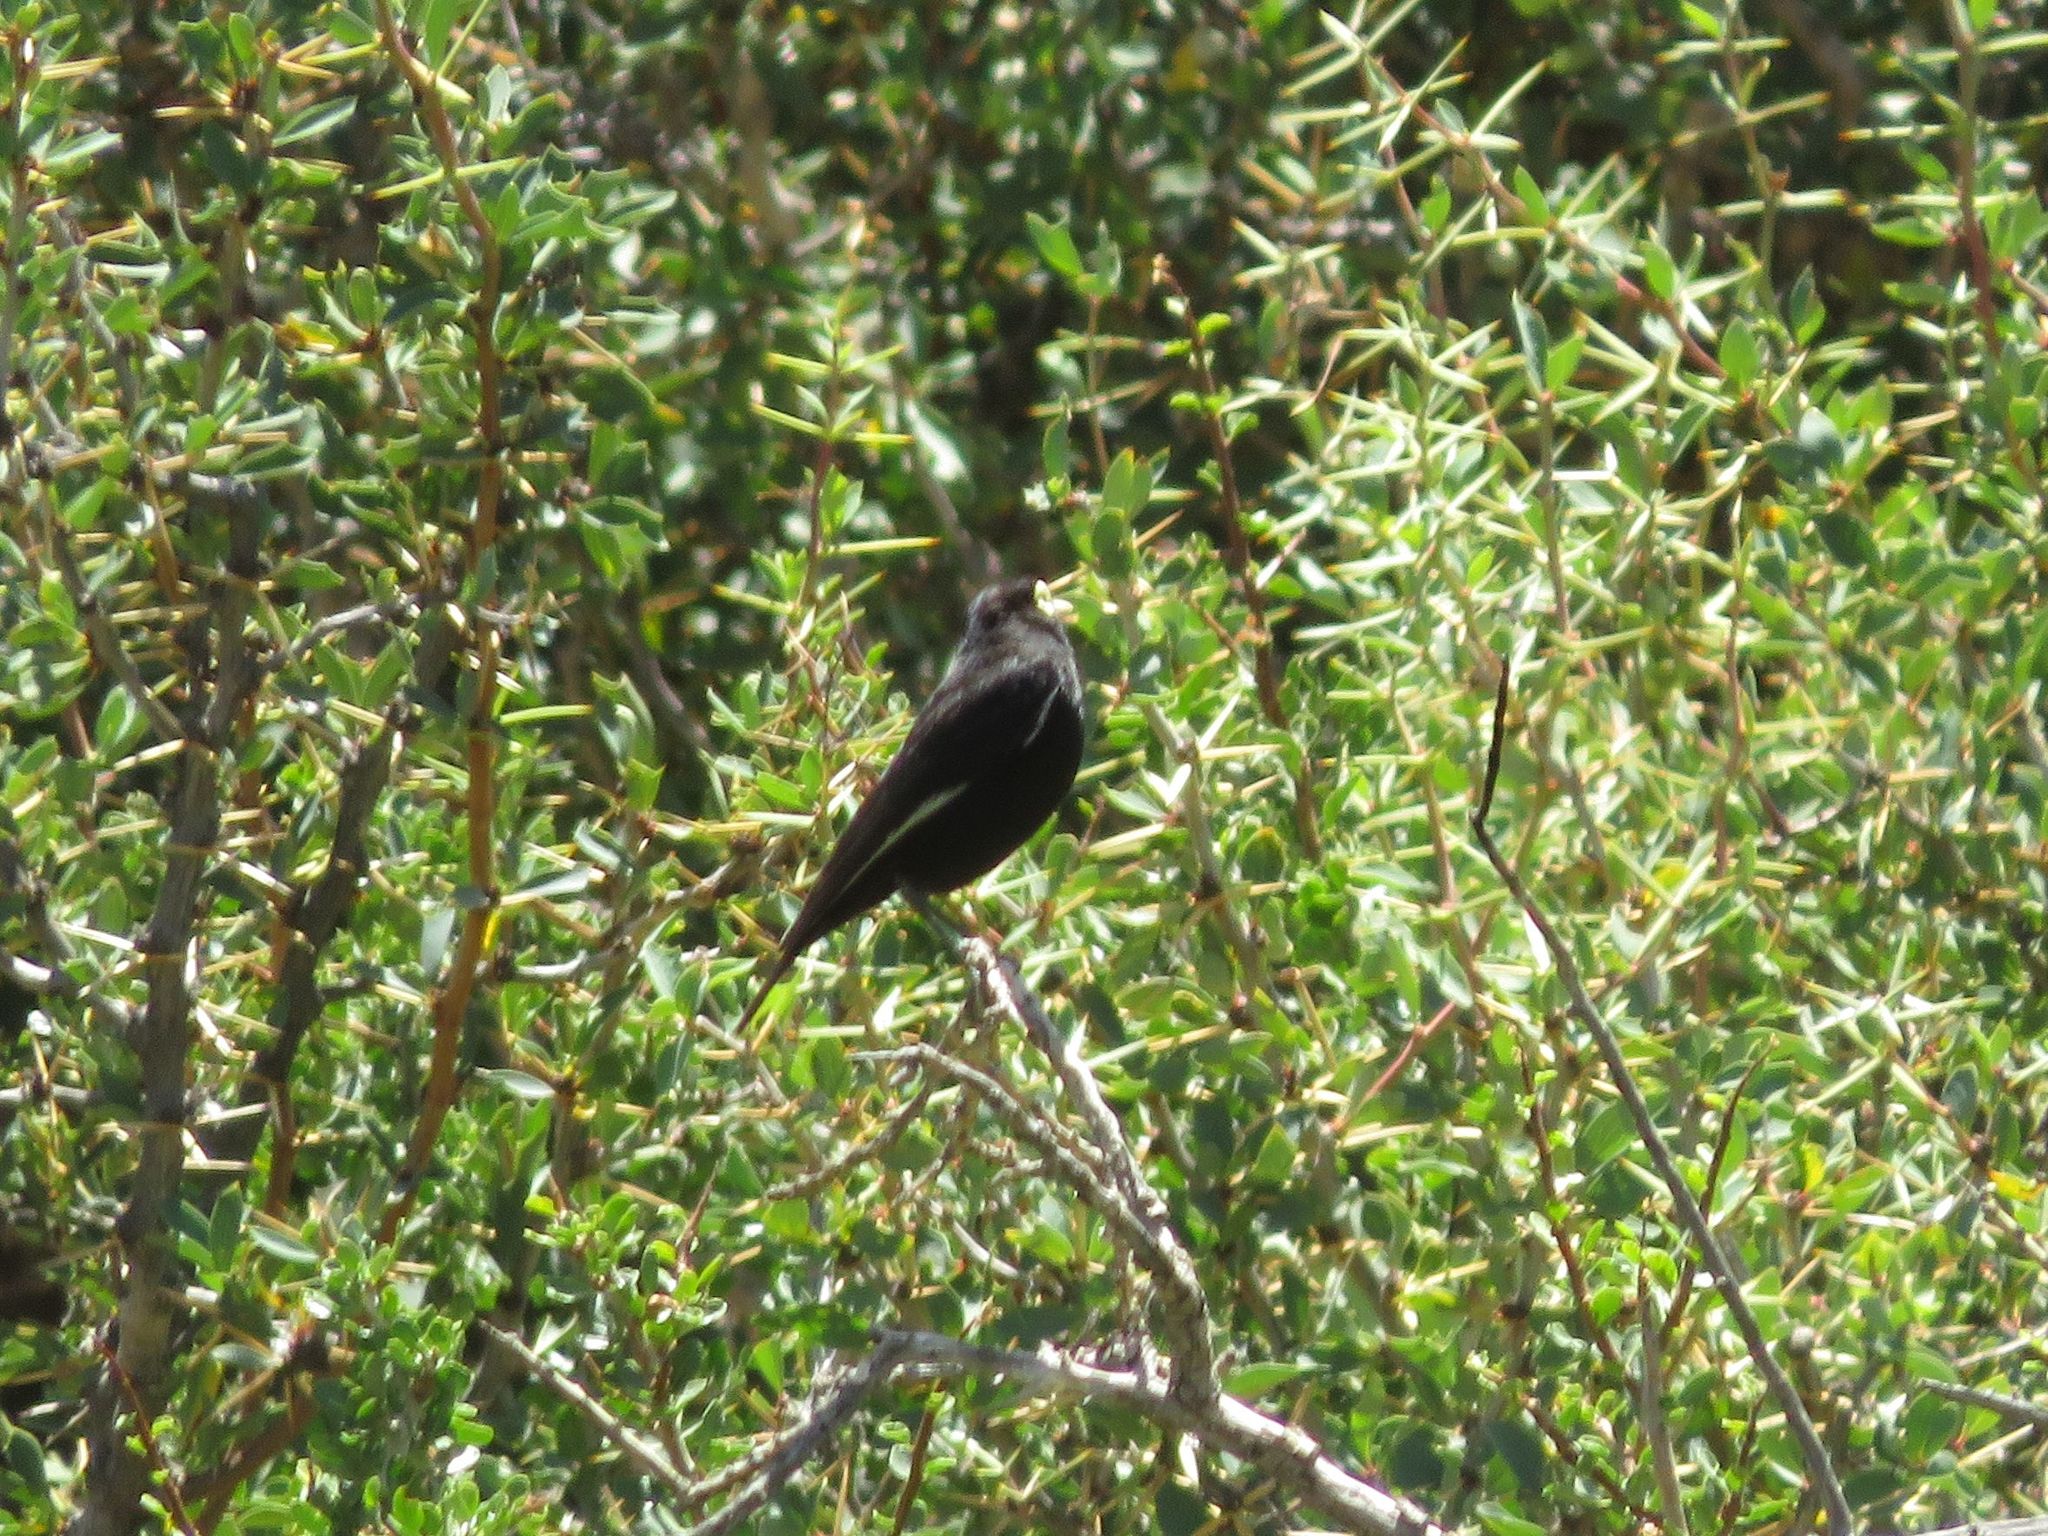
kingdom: Animalia
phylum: Chordata
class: Aves
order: Passeriformes
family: Tyrannidae
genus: Hymenops
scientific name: Hymenops perspicillatus
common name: Spectacled tyrant
